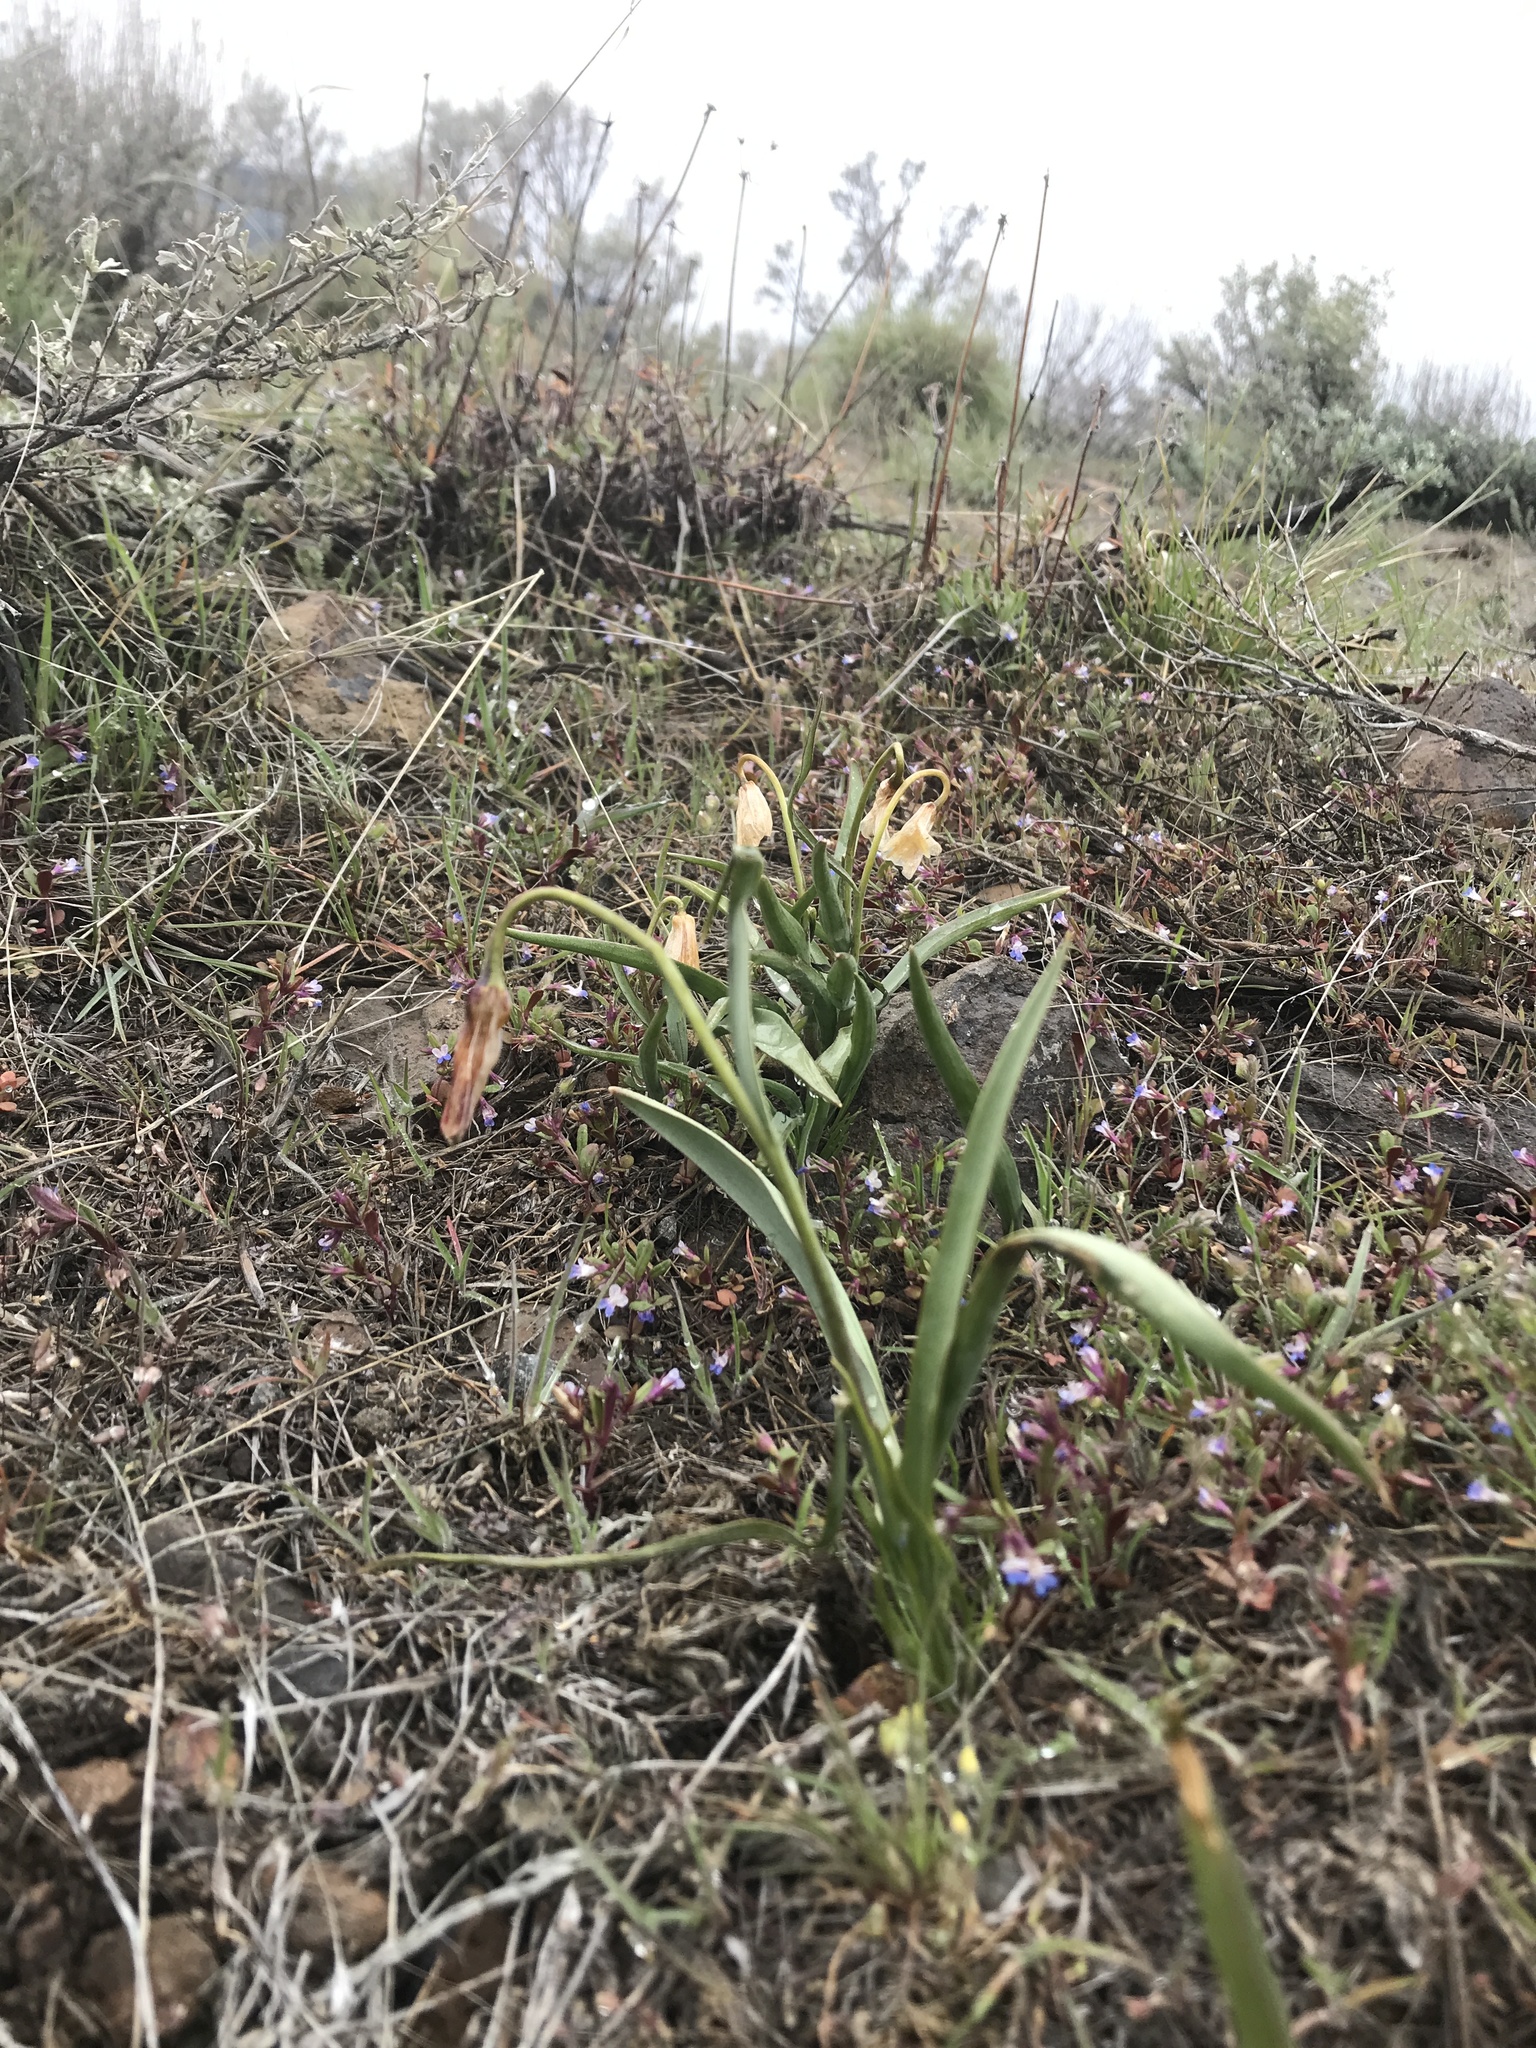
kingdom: Plantae
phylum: Tracheophyta
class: Liliopsida
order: Liliales
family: Liliaceae
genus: Fritillaria
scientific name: Fritillaria pudica
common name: Yellow fritillary
